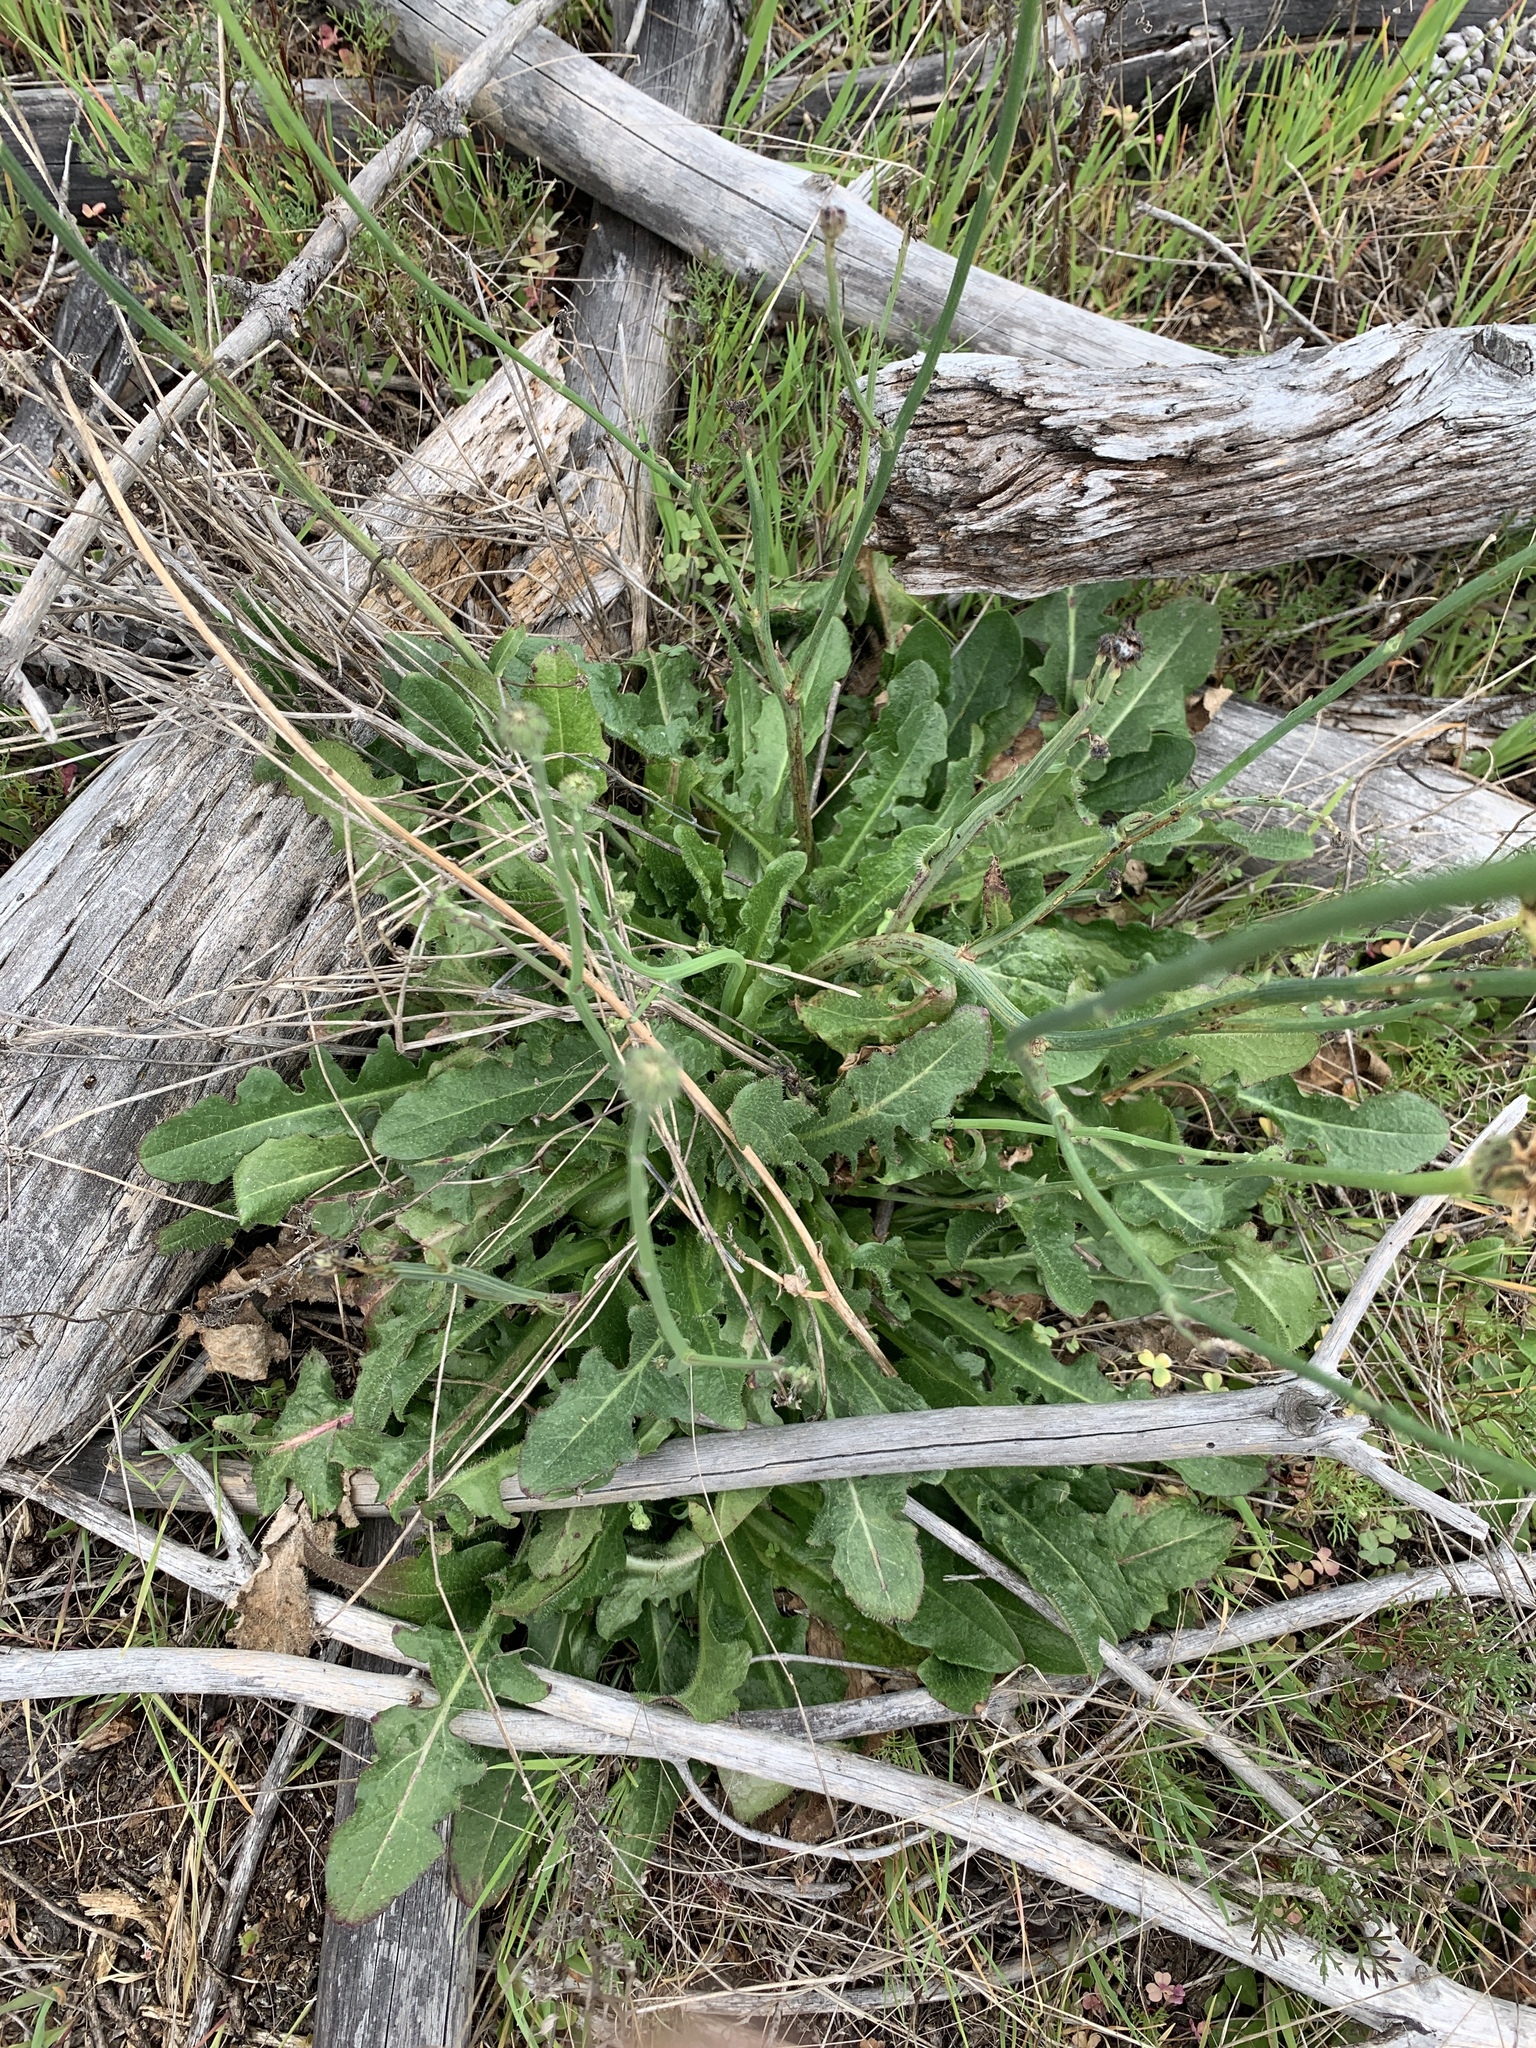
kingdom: Plantae
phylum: Tracheophyta
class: Magnoliopsida
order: Asterales
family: Asteraceae
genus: Hypochaeris
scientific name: Hypochaeris radicata
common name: Flatweed
